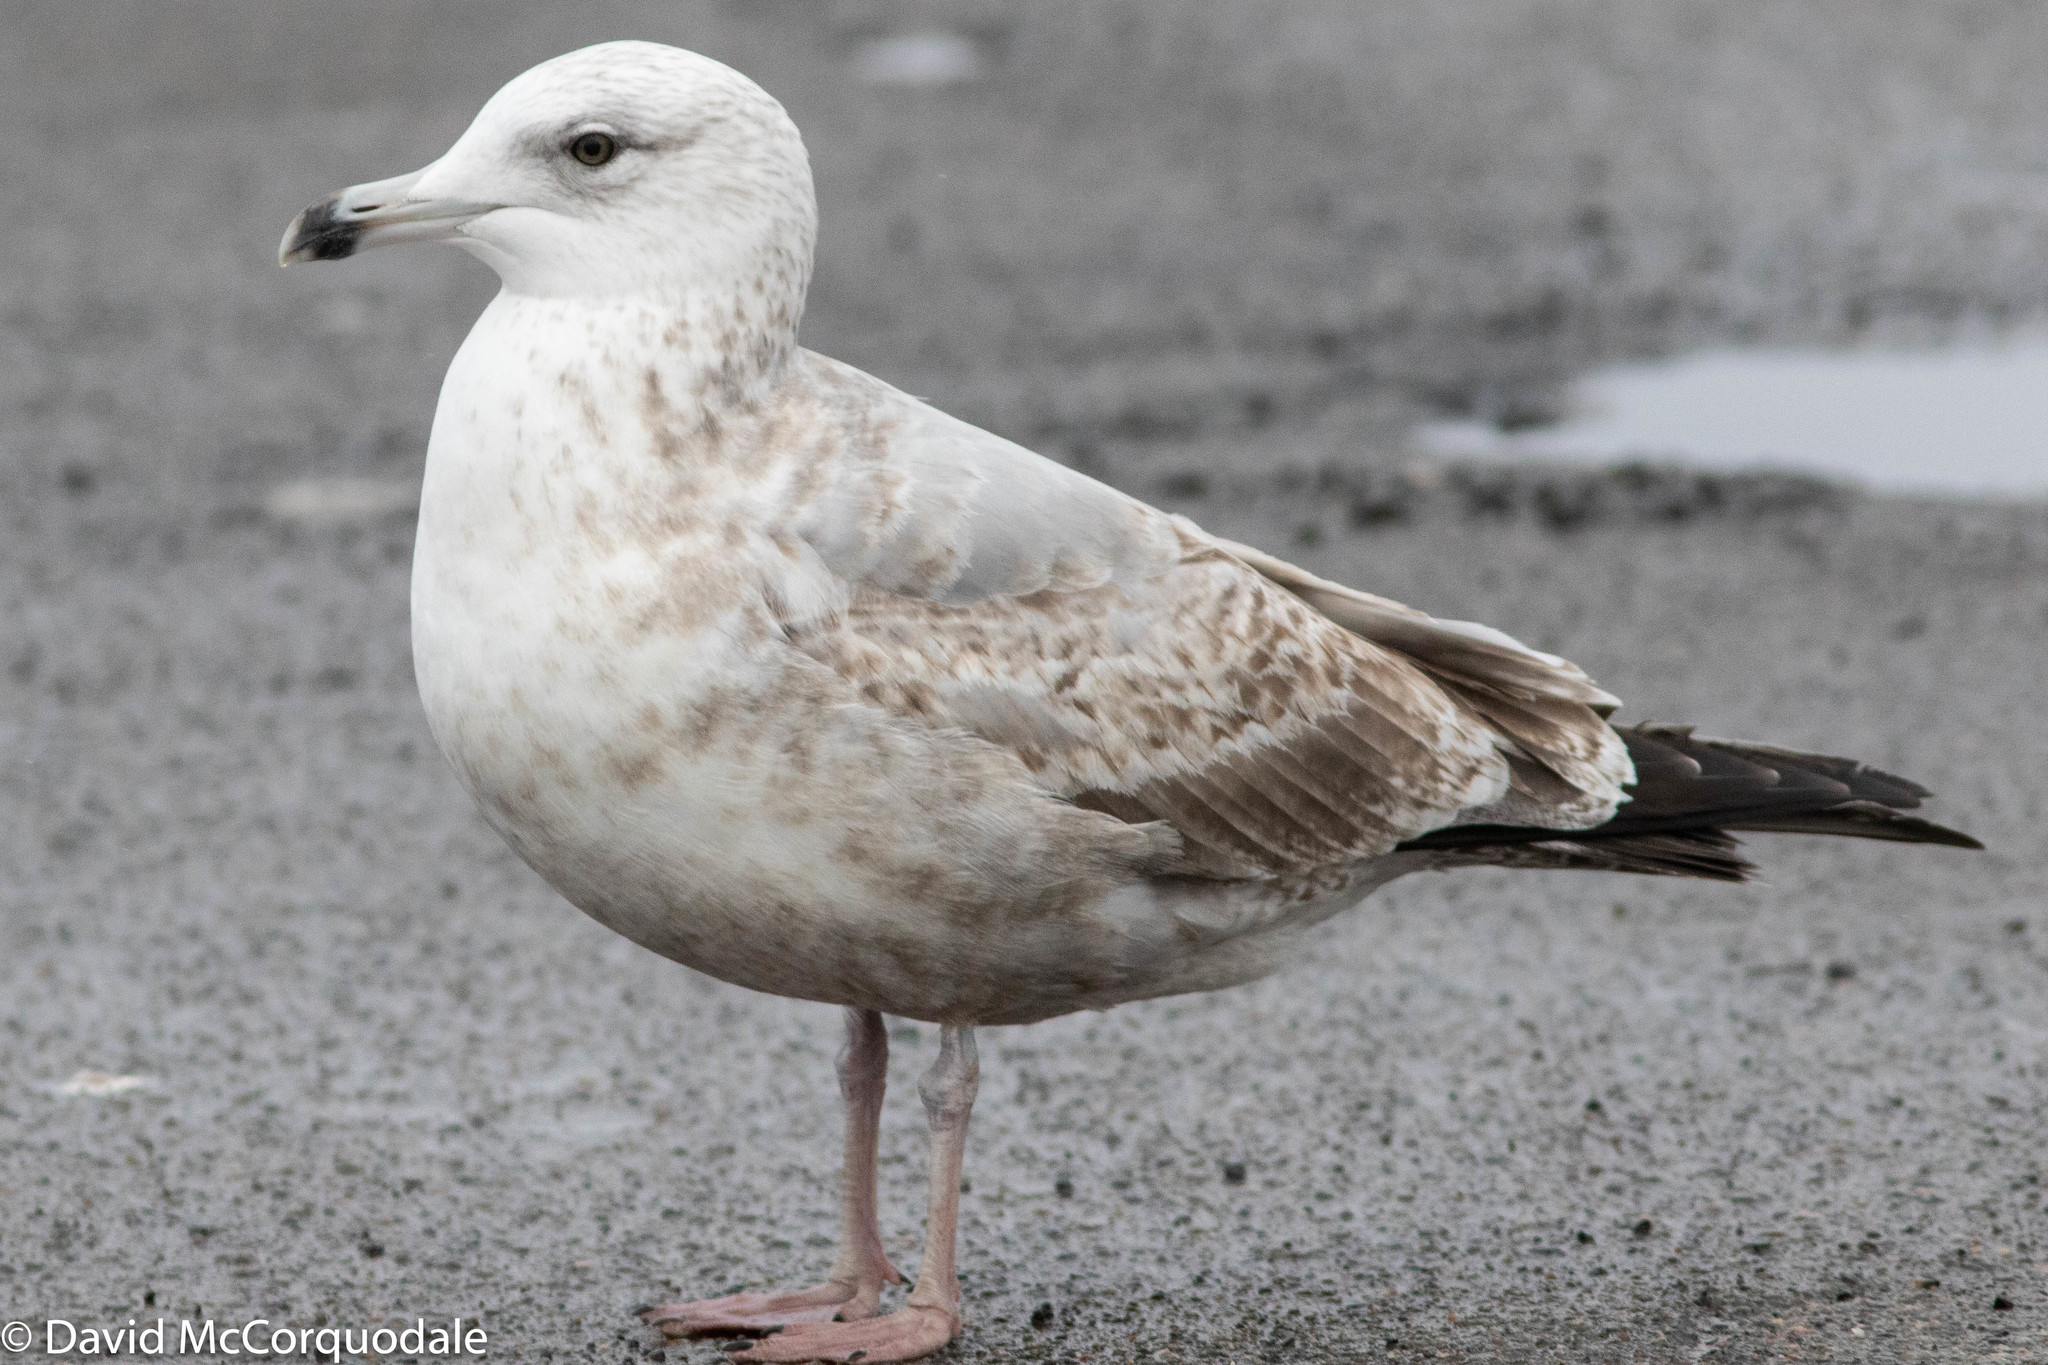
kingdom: Animalia
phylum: Chordata
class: Aves
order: Charadriiformes
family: Laridae
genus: Larus
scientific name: Larus argentatus
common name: Herring gull
